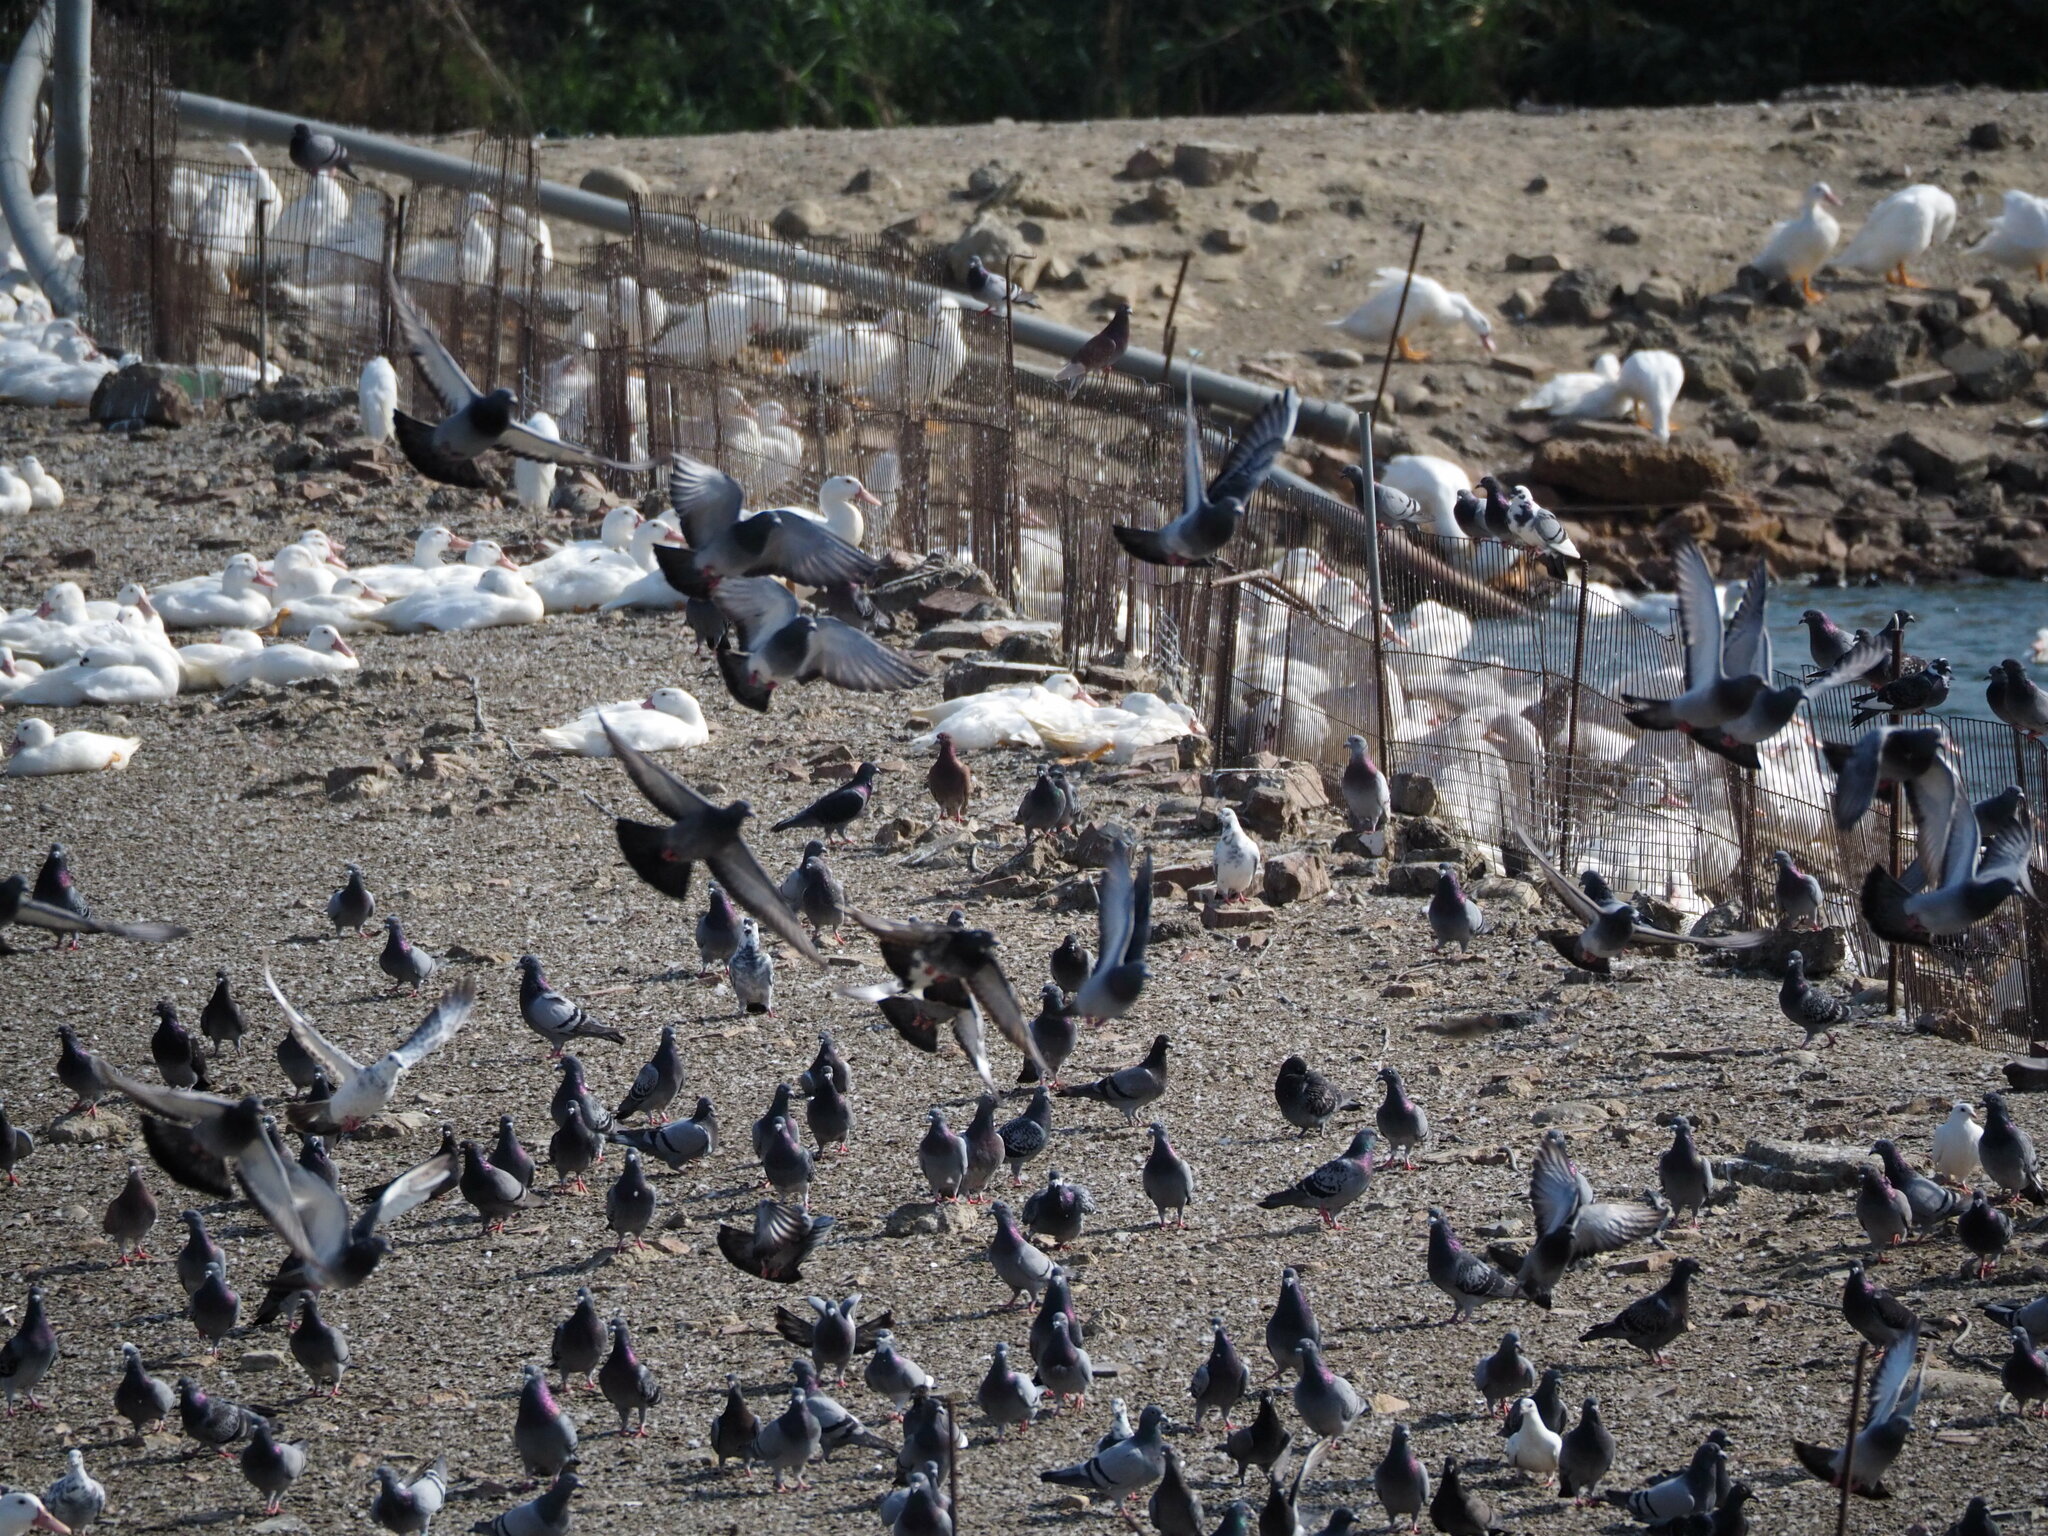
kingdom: Animalia
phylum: Chordata
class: Aves
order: Columbiformes
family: Columbidae
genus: Columba
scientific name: Columba livia
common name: Rock pigeon
